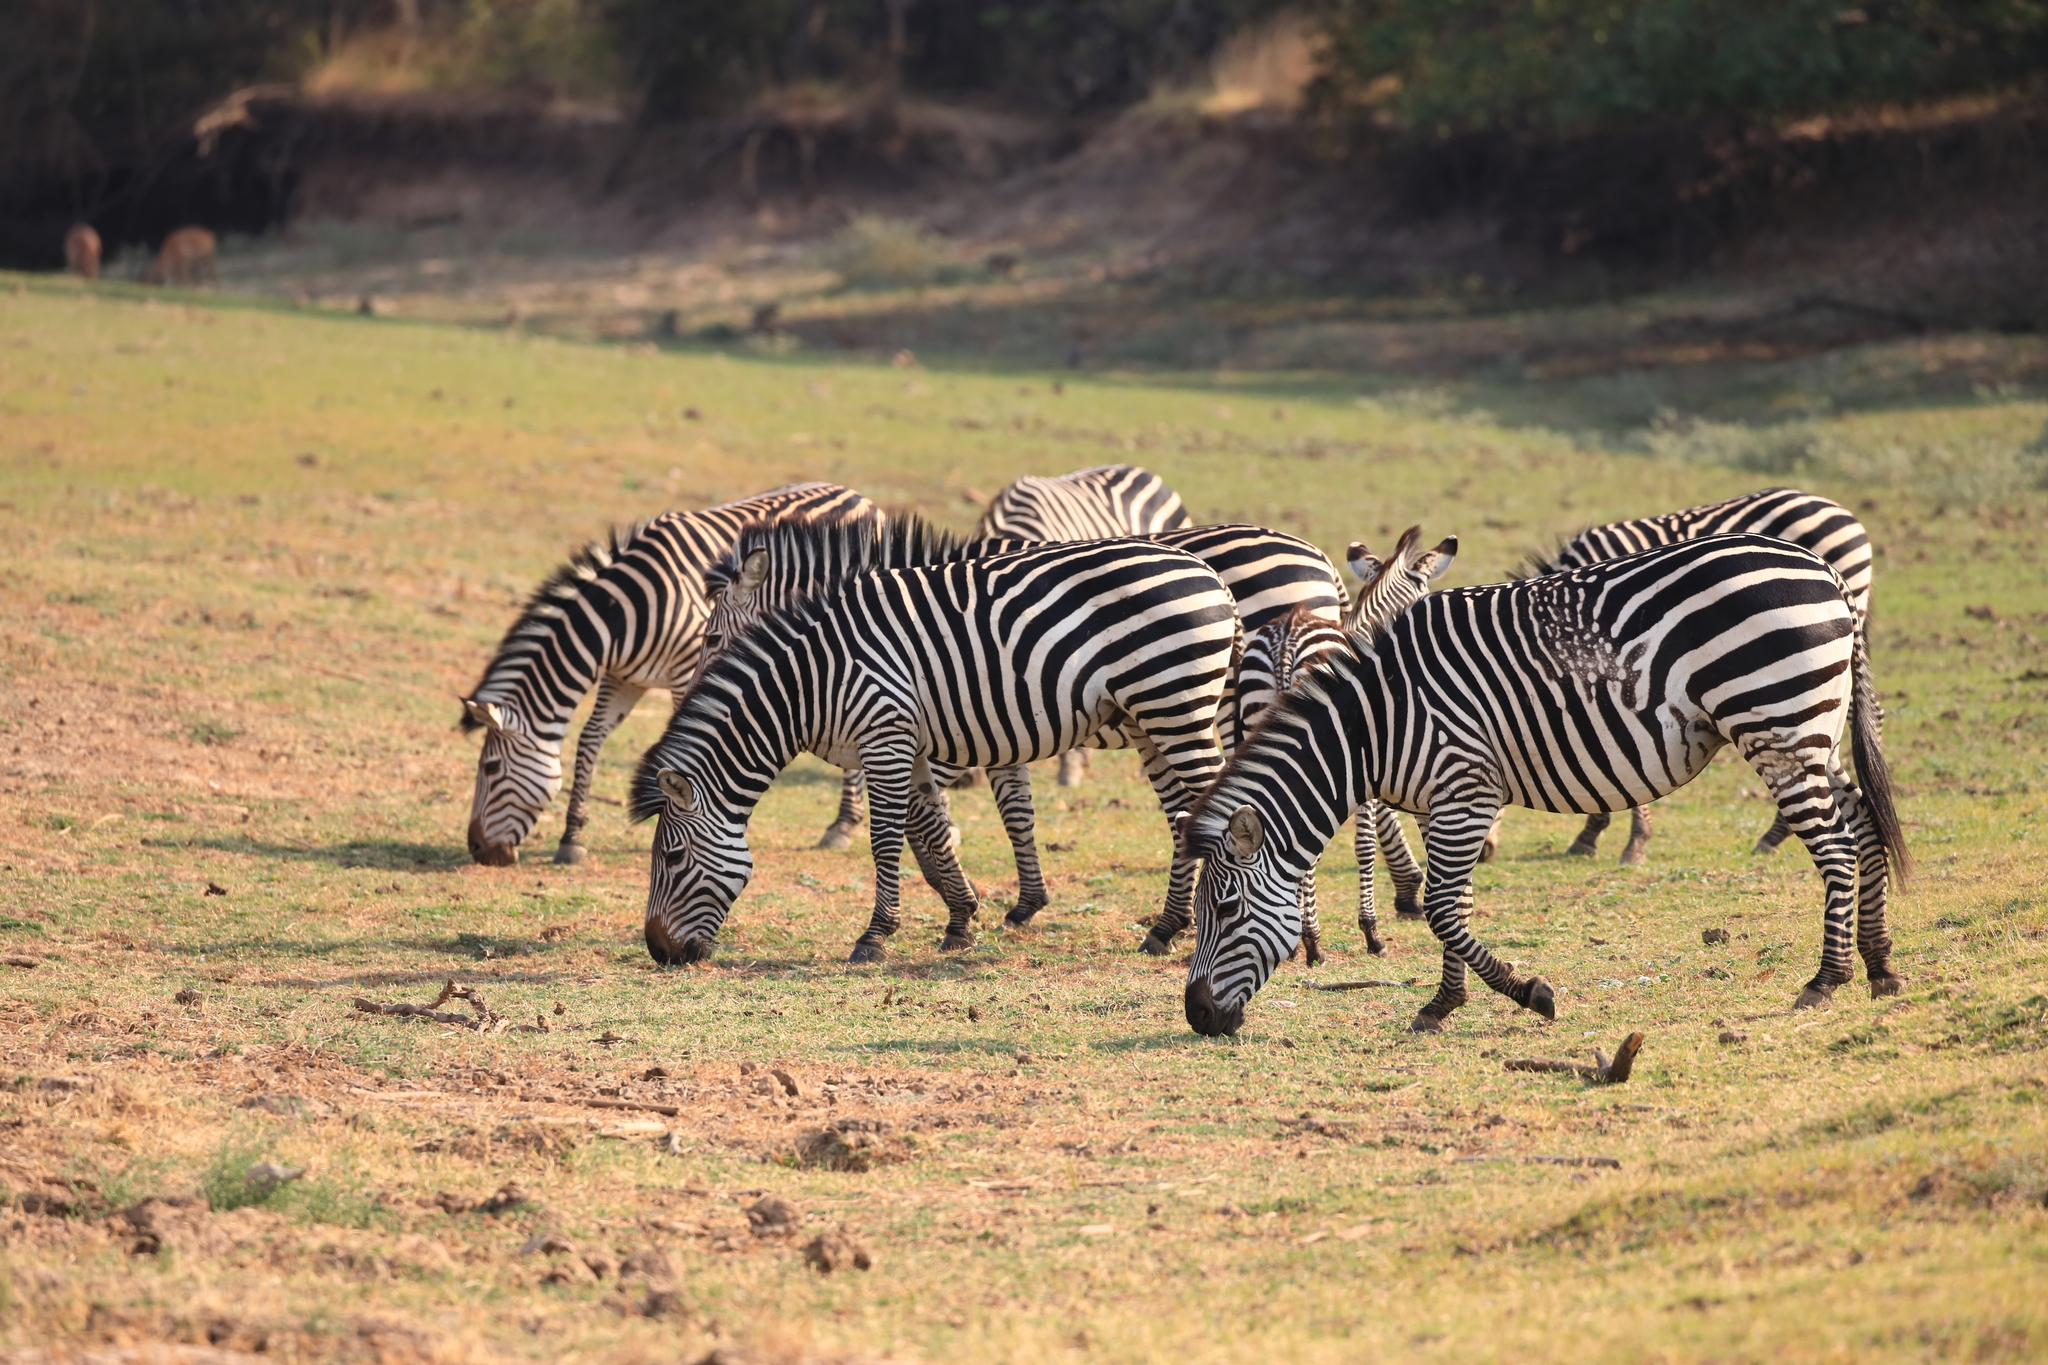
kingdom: Animalia
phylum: Chordata
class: Mammalia
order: Perissodactyla
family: Equidae
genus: Equus
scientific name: Equus quagga
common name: Plains zebra
